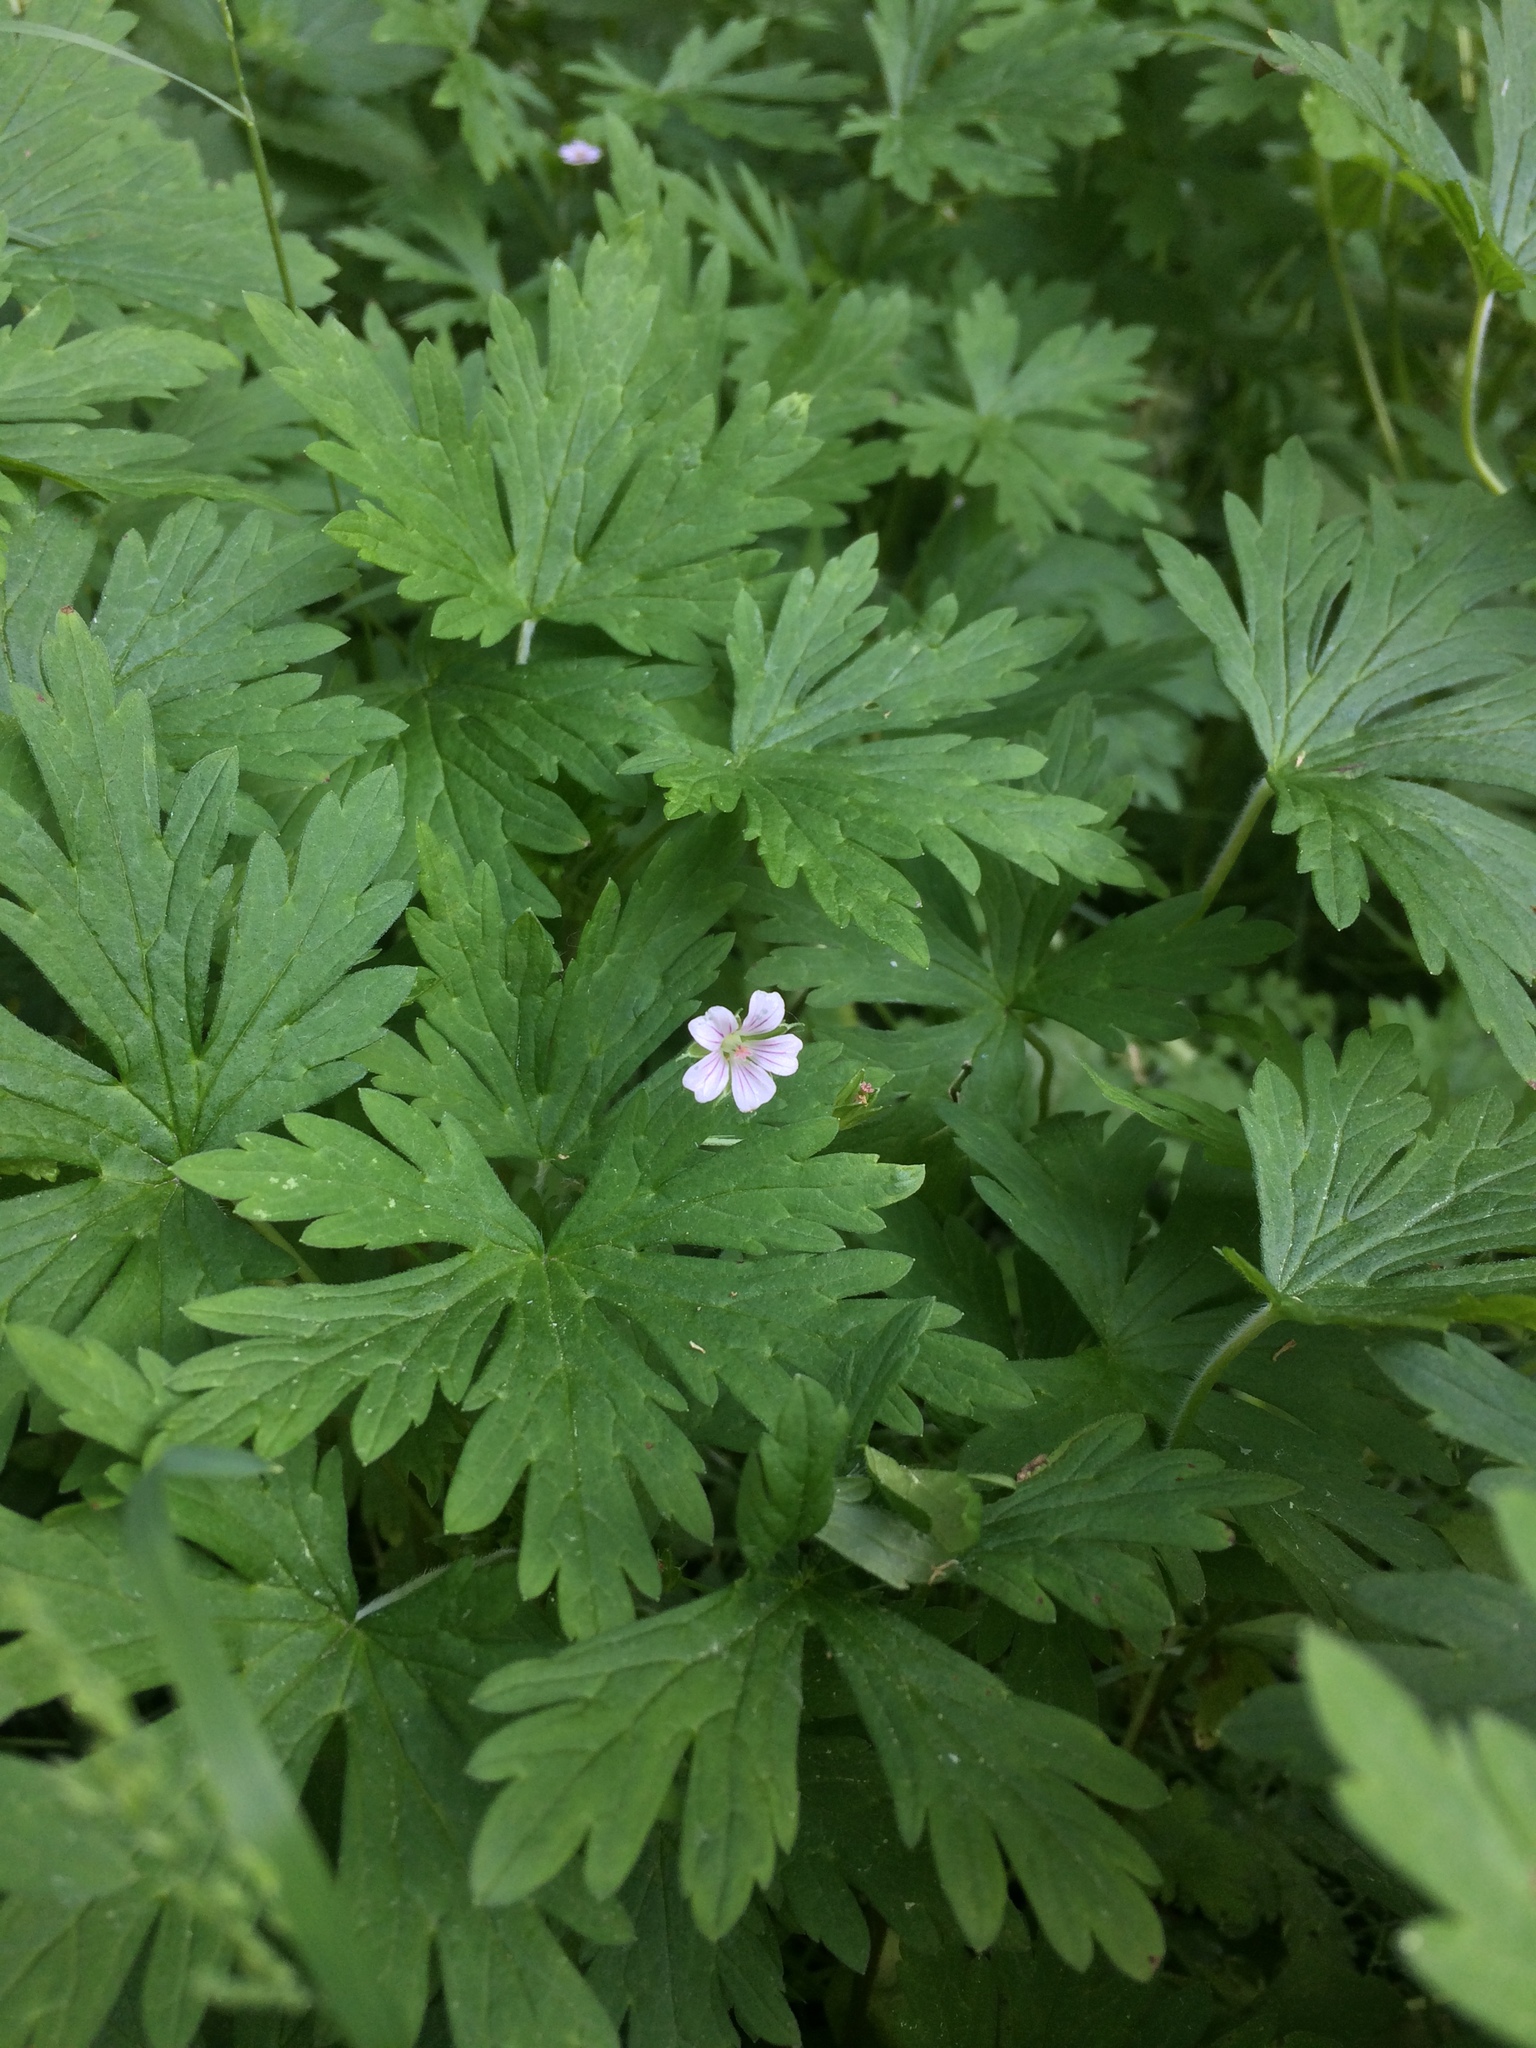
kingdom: Plantae
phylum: Tracheophyta
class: Magnoliopsida
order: Geraniales
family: Geraniaceae
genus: Geranium
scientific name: Geranium sibiricum
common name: Siberian crane's-bill
